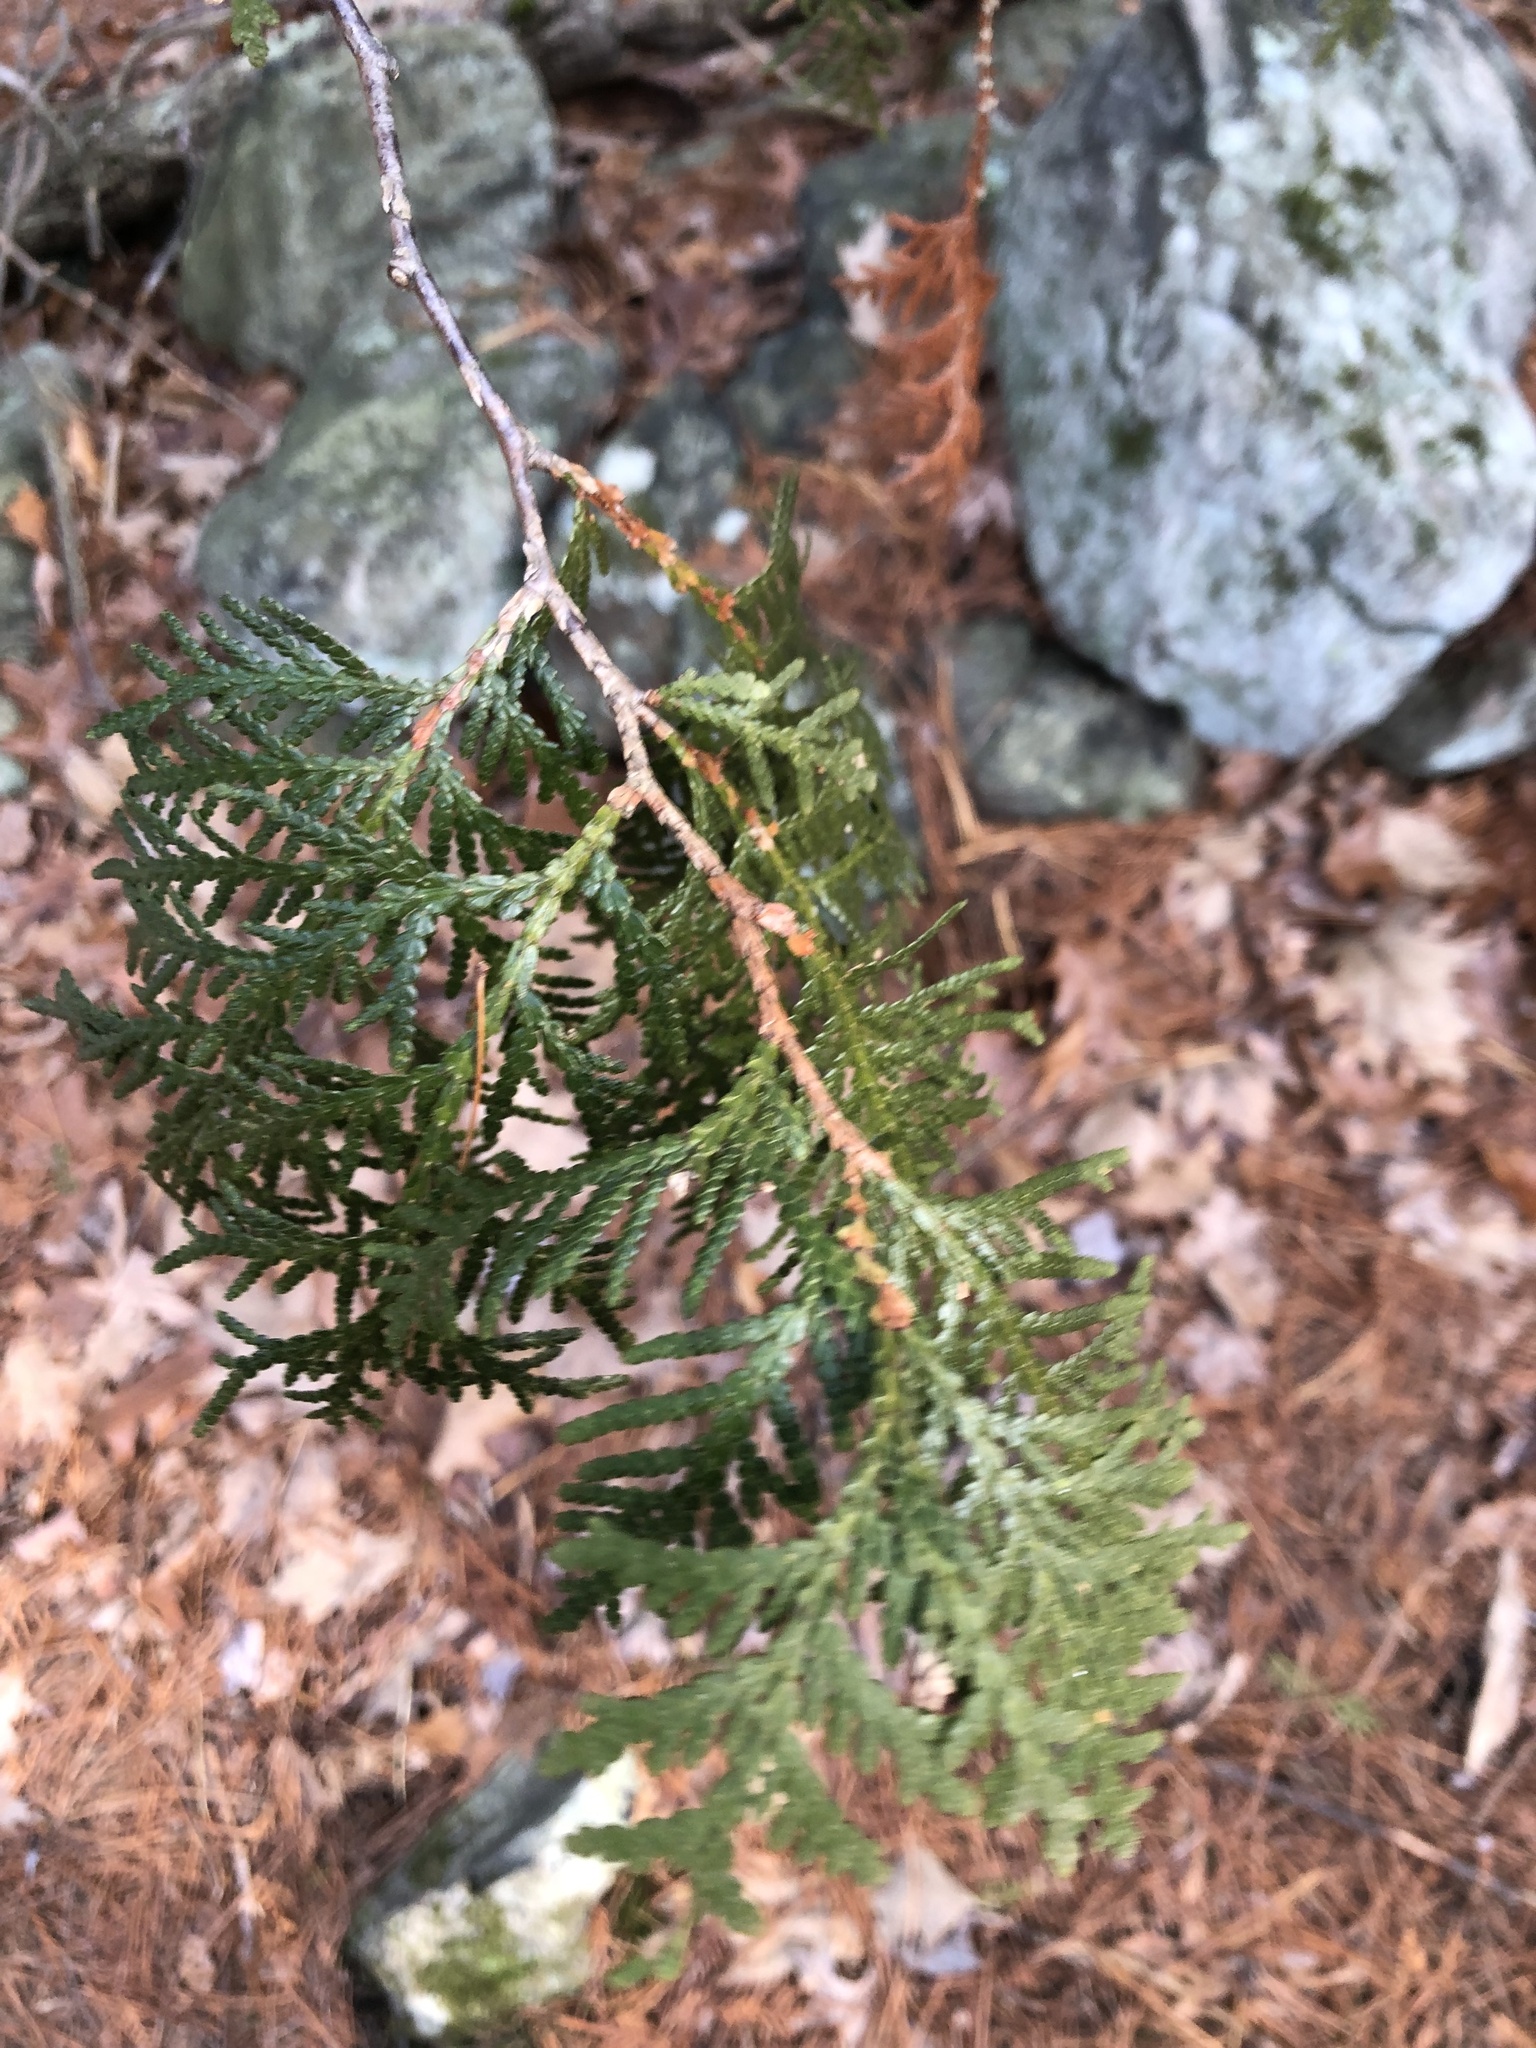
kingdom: Plantae
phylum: Tracheophyta
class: Pinopsida
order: Pinales
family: Cupressaceae
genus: Thuja
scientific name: Thuja occidentalis
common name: Northern white-cedar
